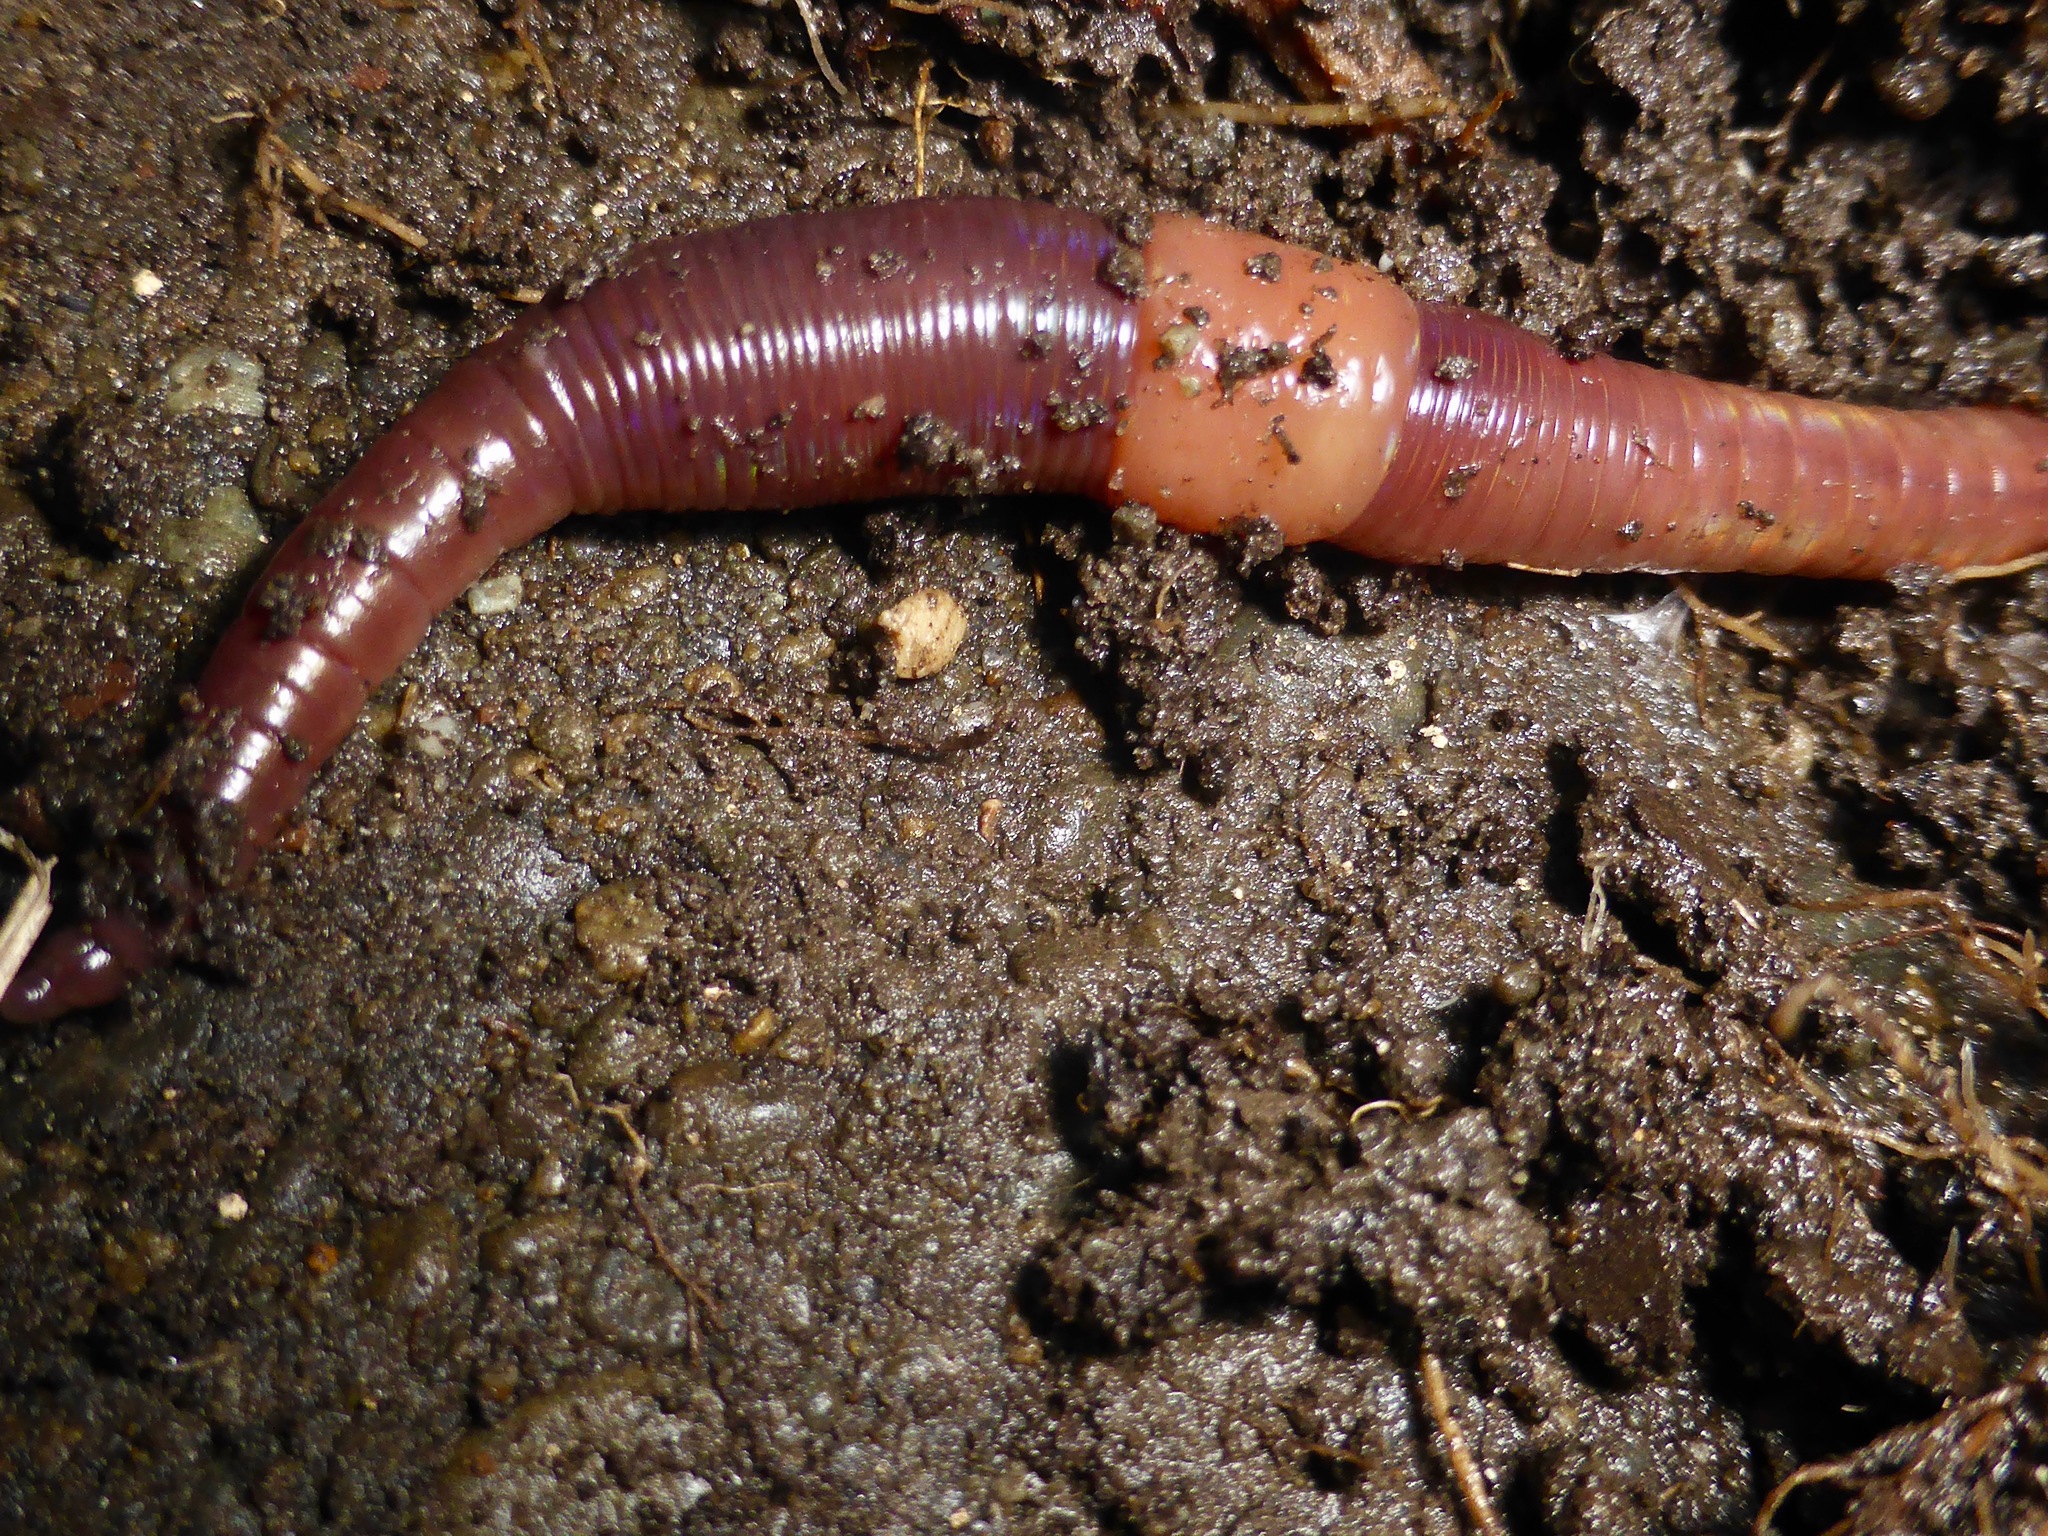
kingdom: Animalia
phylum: Annelida
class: Clitellata
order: Crassiclitellata
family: Lumbricidae
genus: Lumbricus
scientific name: Lumbricus terrestris
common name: Common earthworm
